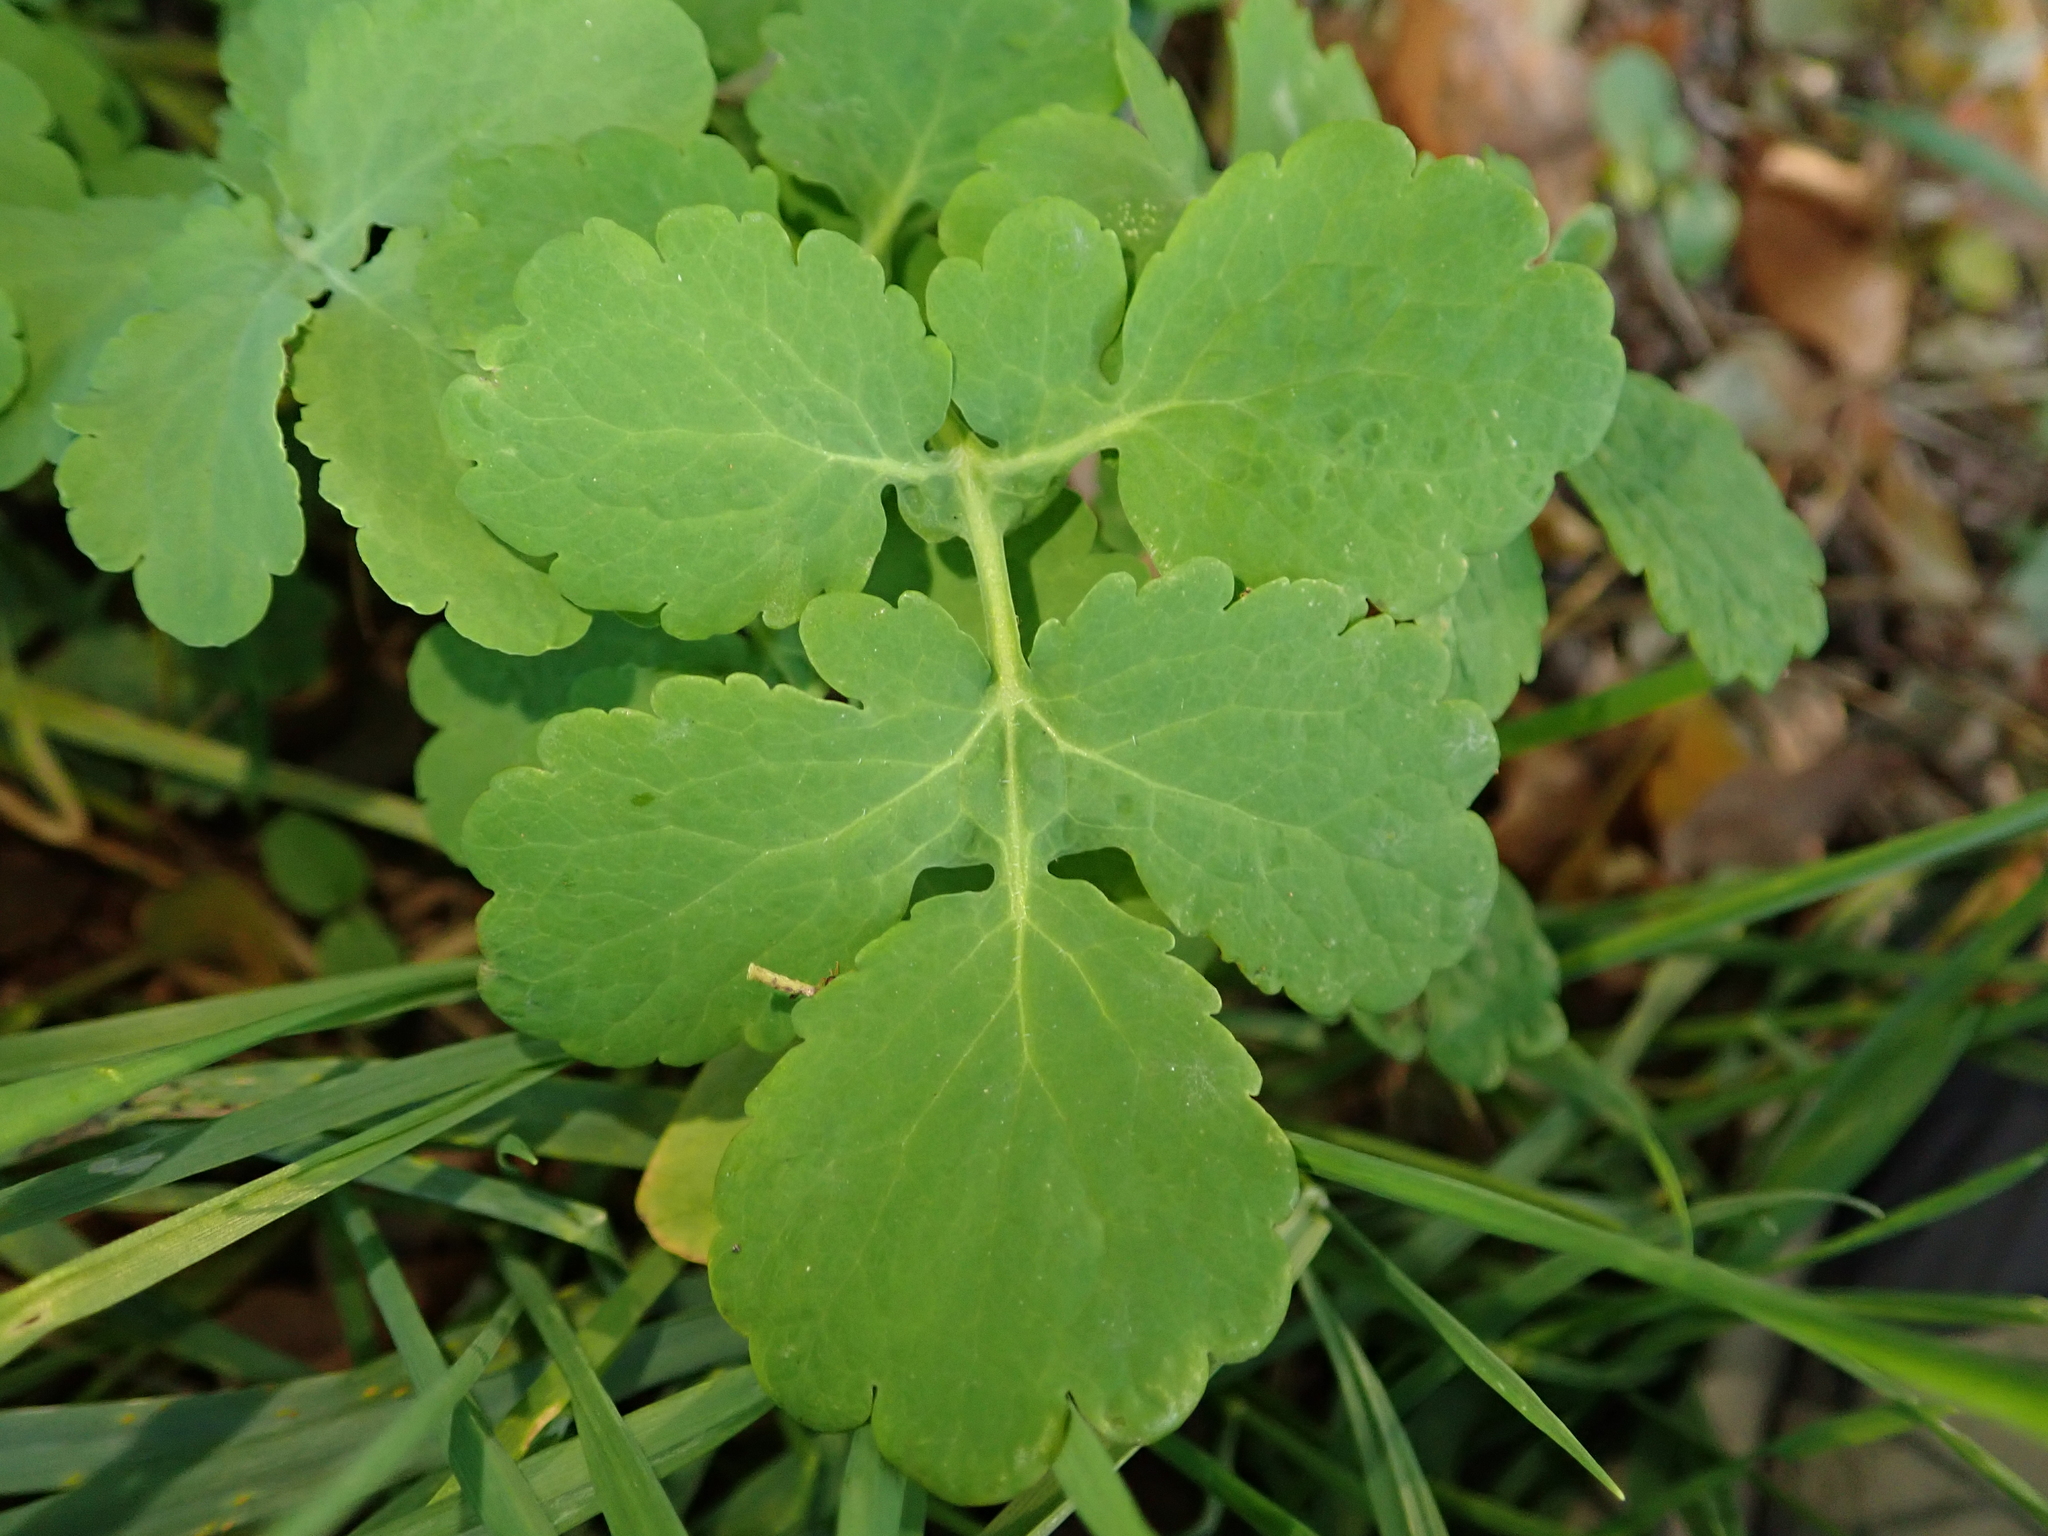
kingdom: Plantae
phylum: Tracheophyta
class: Magnoliopsida
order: Ranunculales
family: Papaveraceae
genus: Chelidonium
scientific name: Chelidonium majus
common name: Greater celandine
